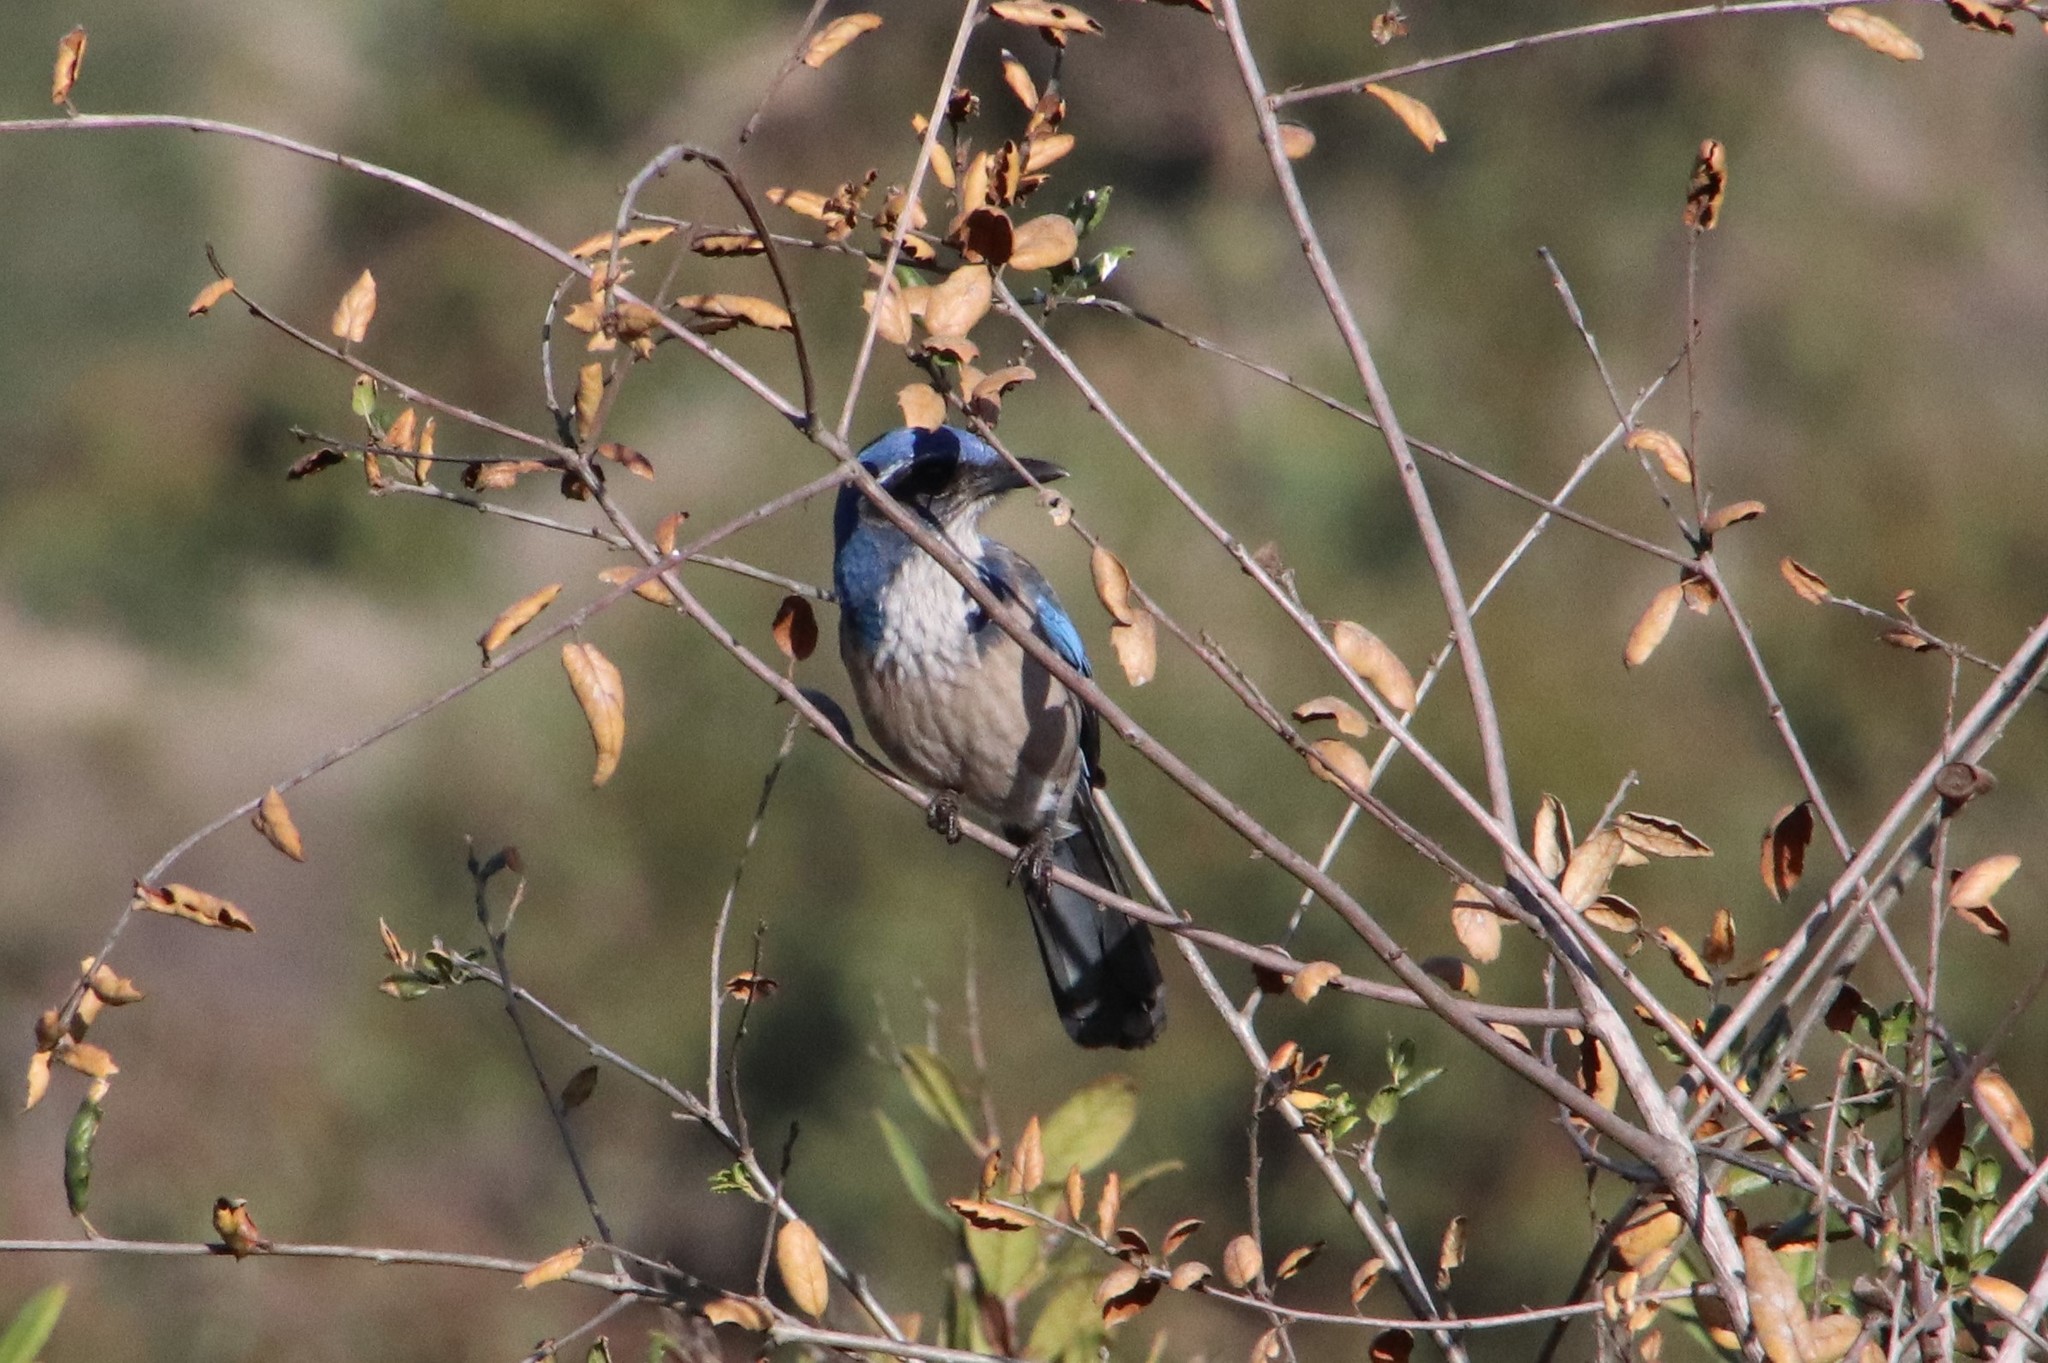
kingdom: Animalia
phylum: Chordata
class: Aves
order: Passeriformes
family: Corvidae
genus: Aphelocoma
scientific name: Aphelocoma californica
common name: California scrub-jay
